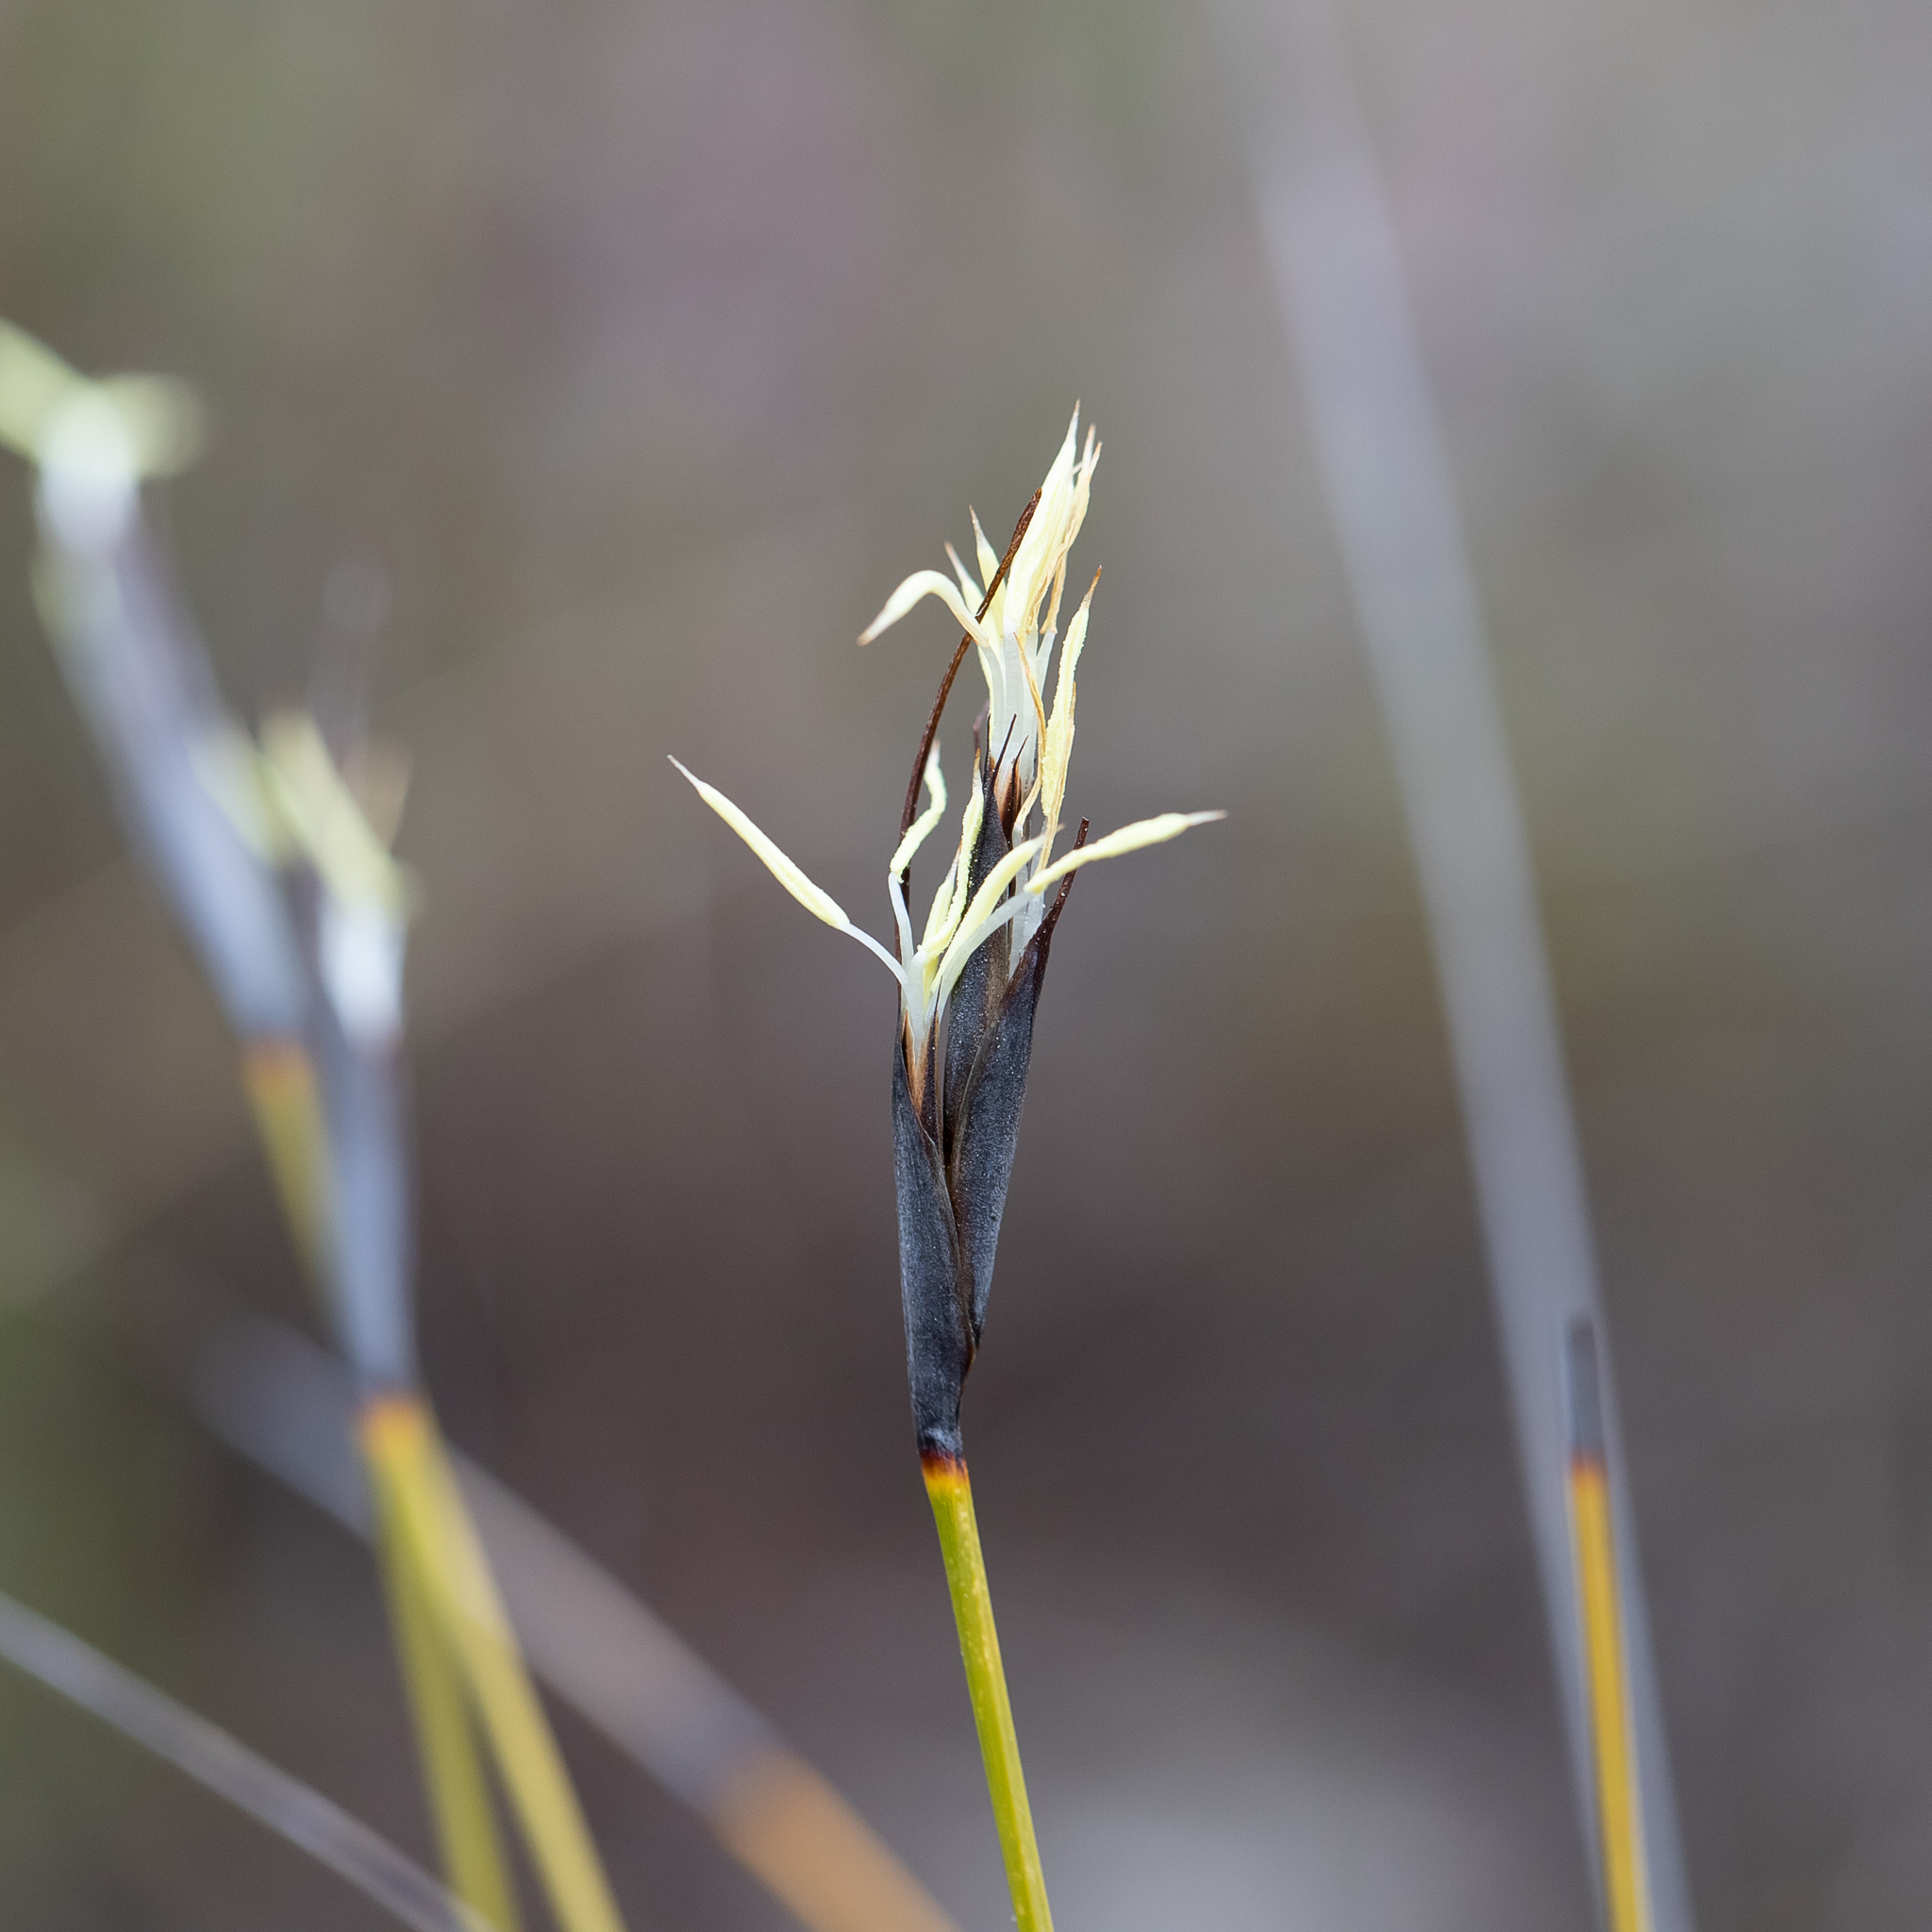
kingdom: Plantae
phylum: Tracheophyta
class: Liliopsida
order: Poales
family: Cyperaceae
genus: Lepidosperma
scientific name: Lepidosperma carphoides
